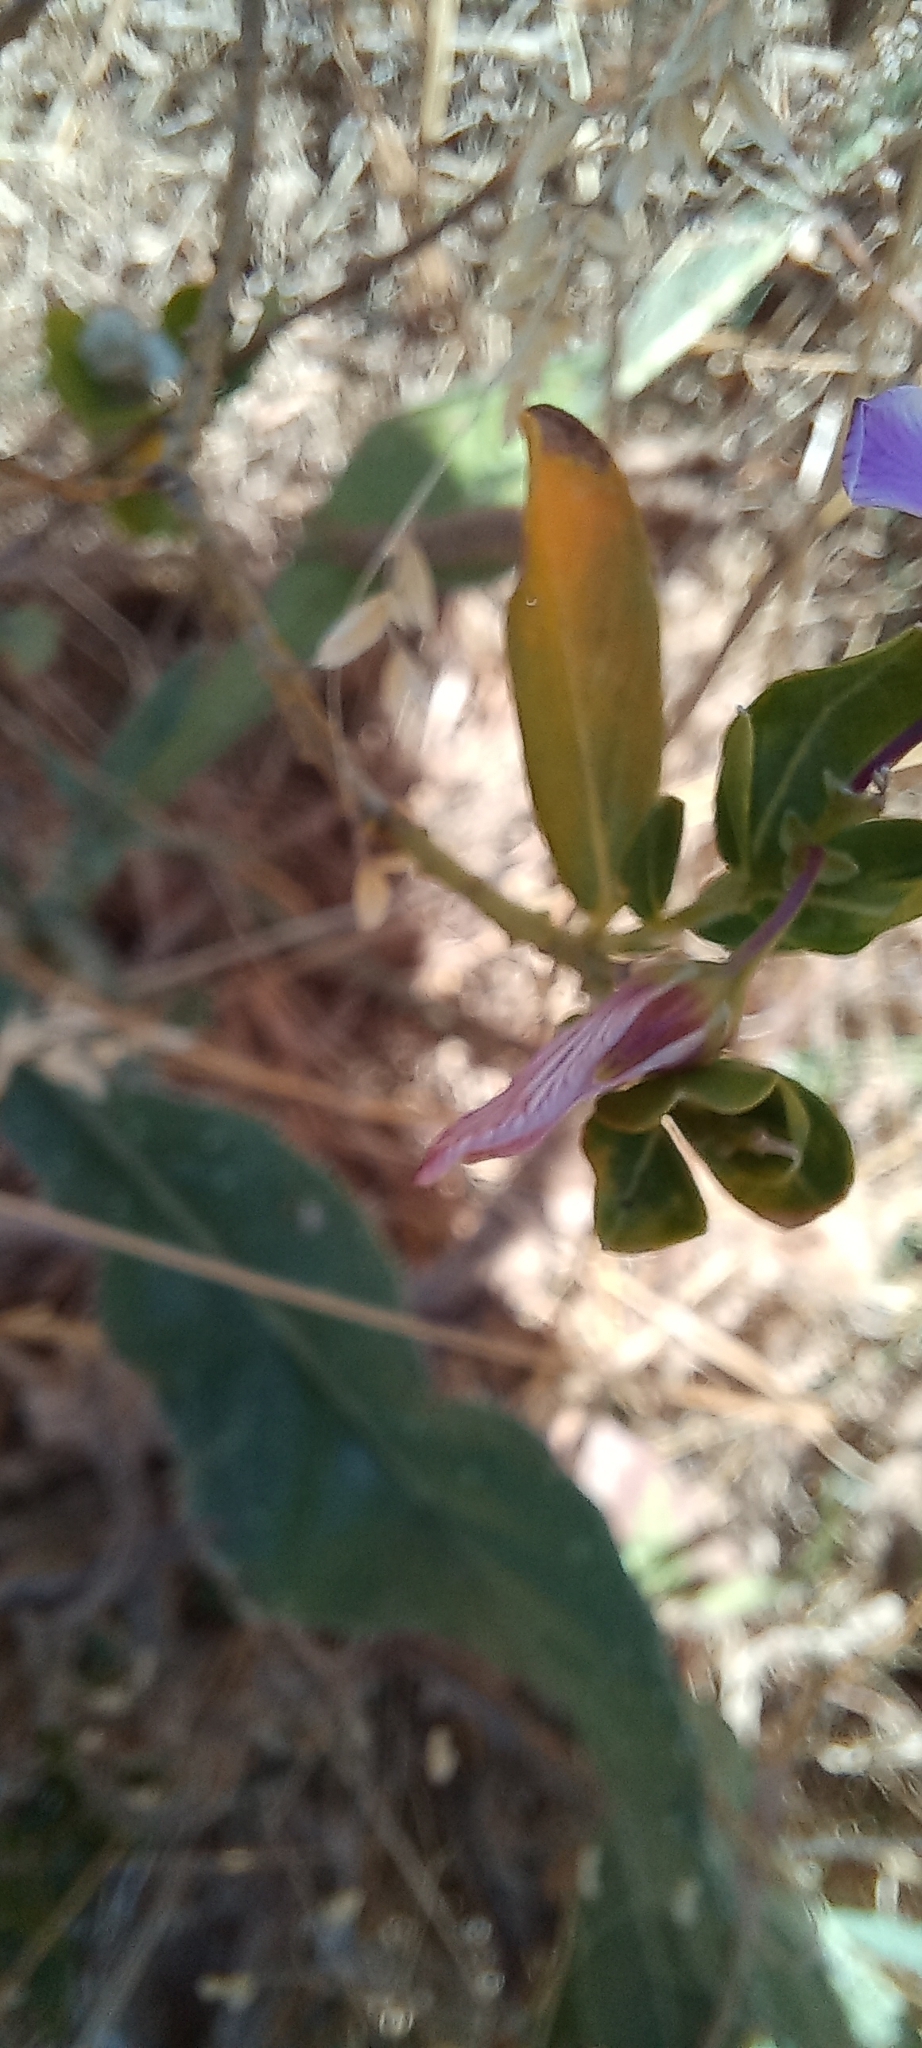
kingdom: Plantae
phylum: Tracheophyta
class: Magnoliopsida
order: Fabales
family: Polygalaceae
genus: Polygala
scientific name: Polygala myrtifolia
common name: Myrtle-leaf milkwort
